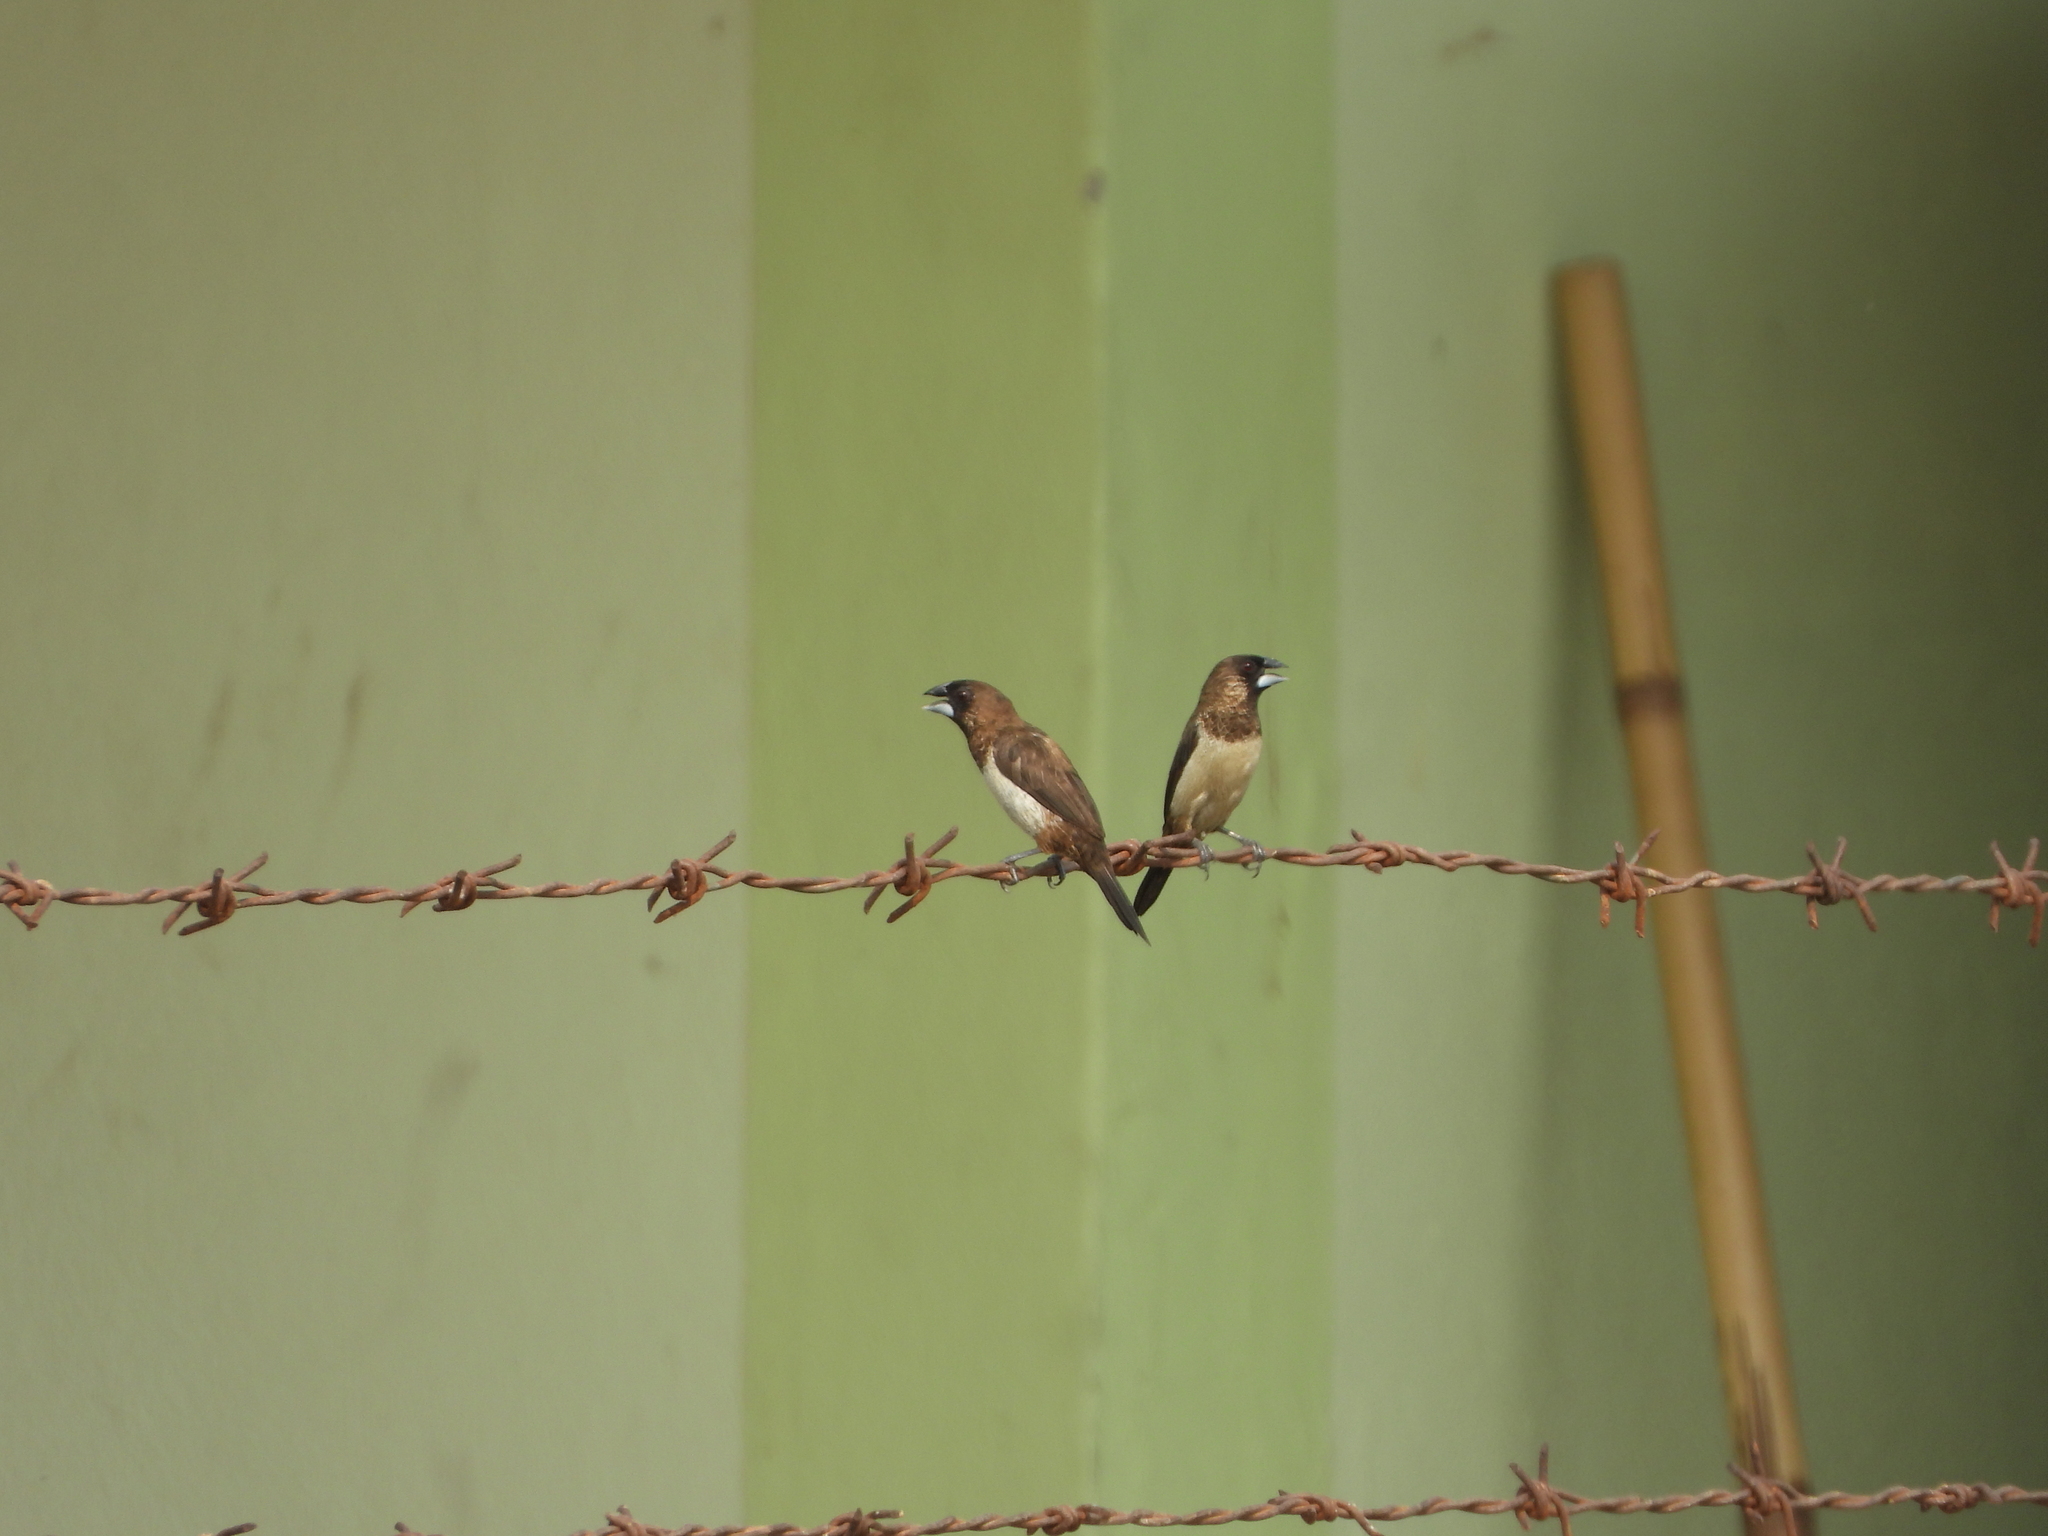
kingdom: Animalia
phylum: Chordata
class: Aves
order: Passeriformes
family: Estrildidae
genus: Lonchura
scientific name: Lonchura striata
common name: White-rumped munia
